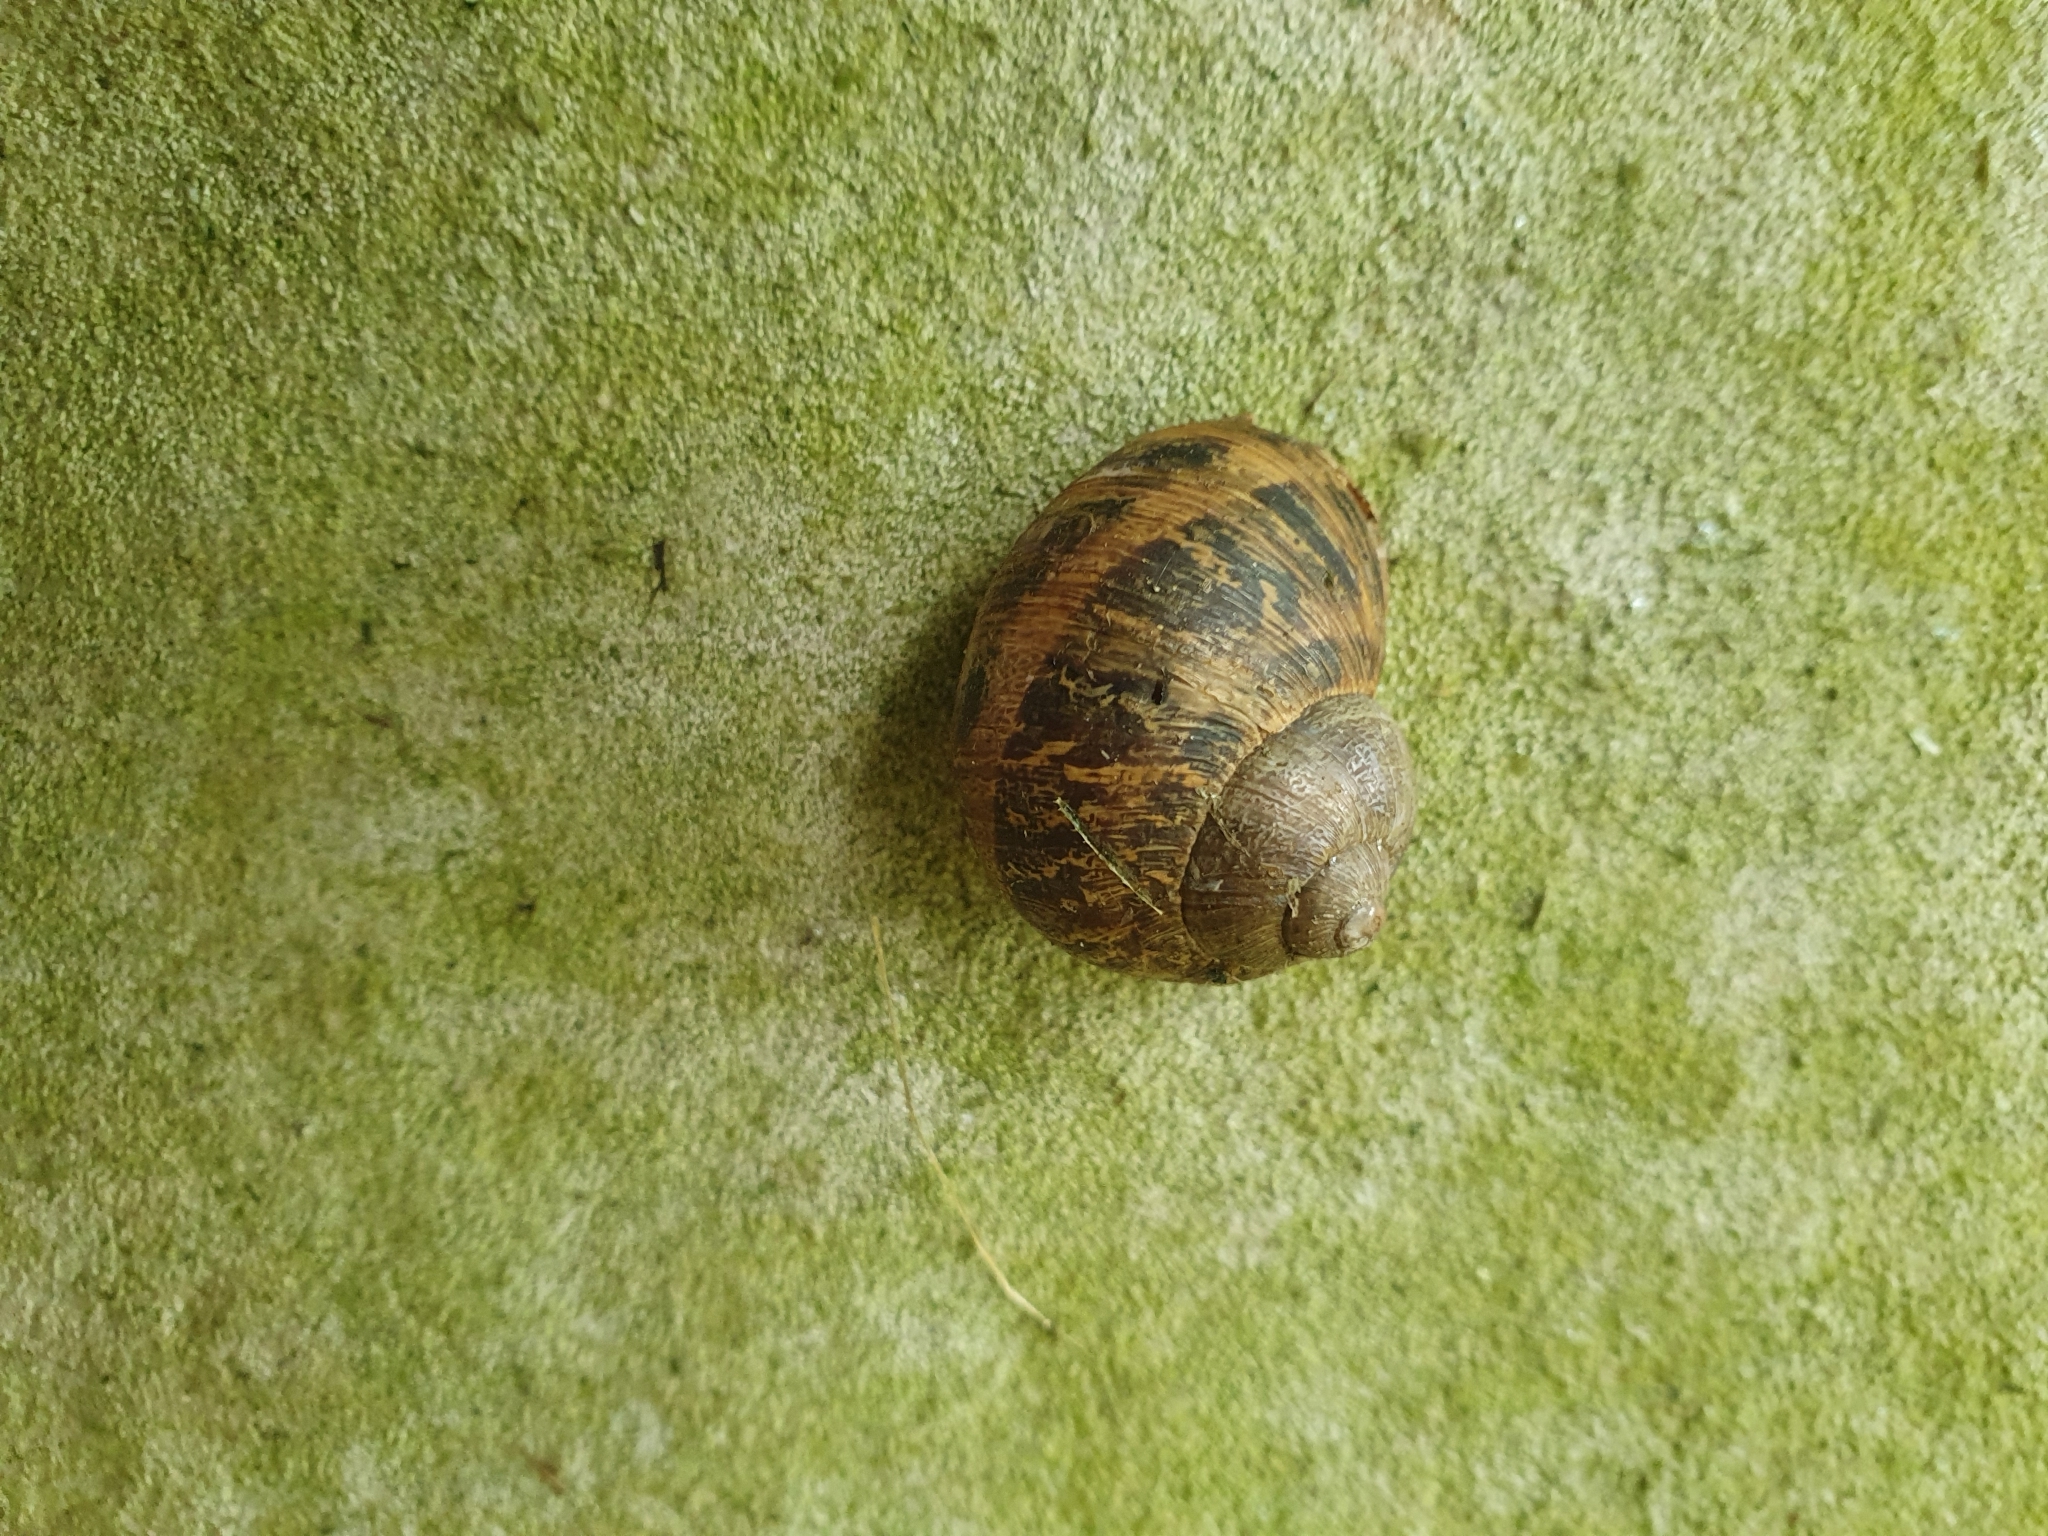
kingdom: Animalia
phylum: Mollusca
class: Gastropoda
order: Stylommatophora
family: Helicidae
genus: Cornu
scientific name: Cornu aspersum
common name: Brown garden snail
